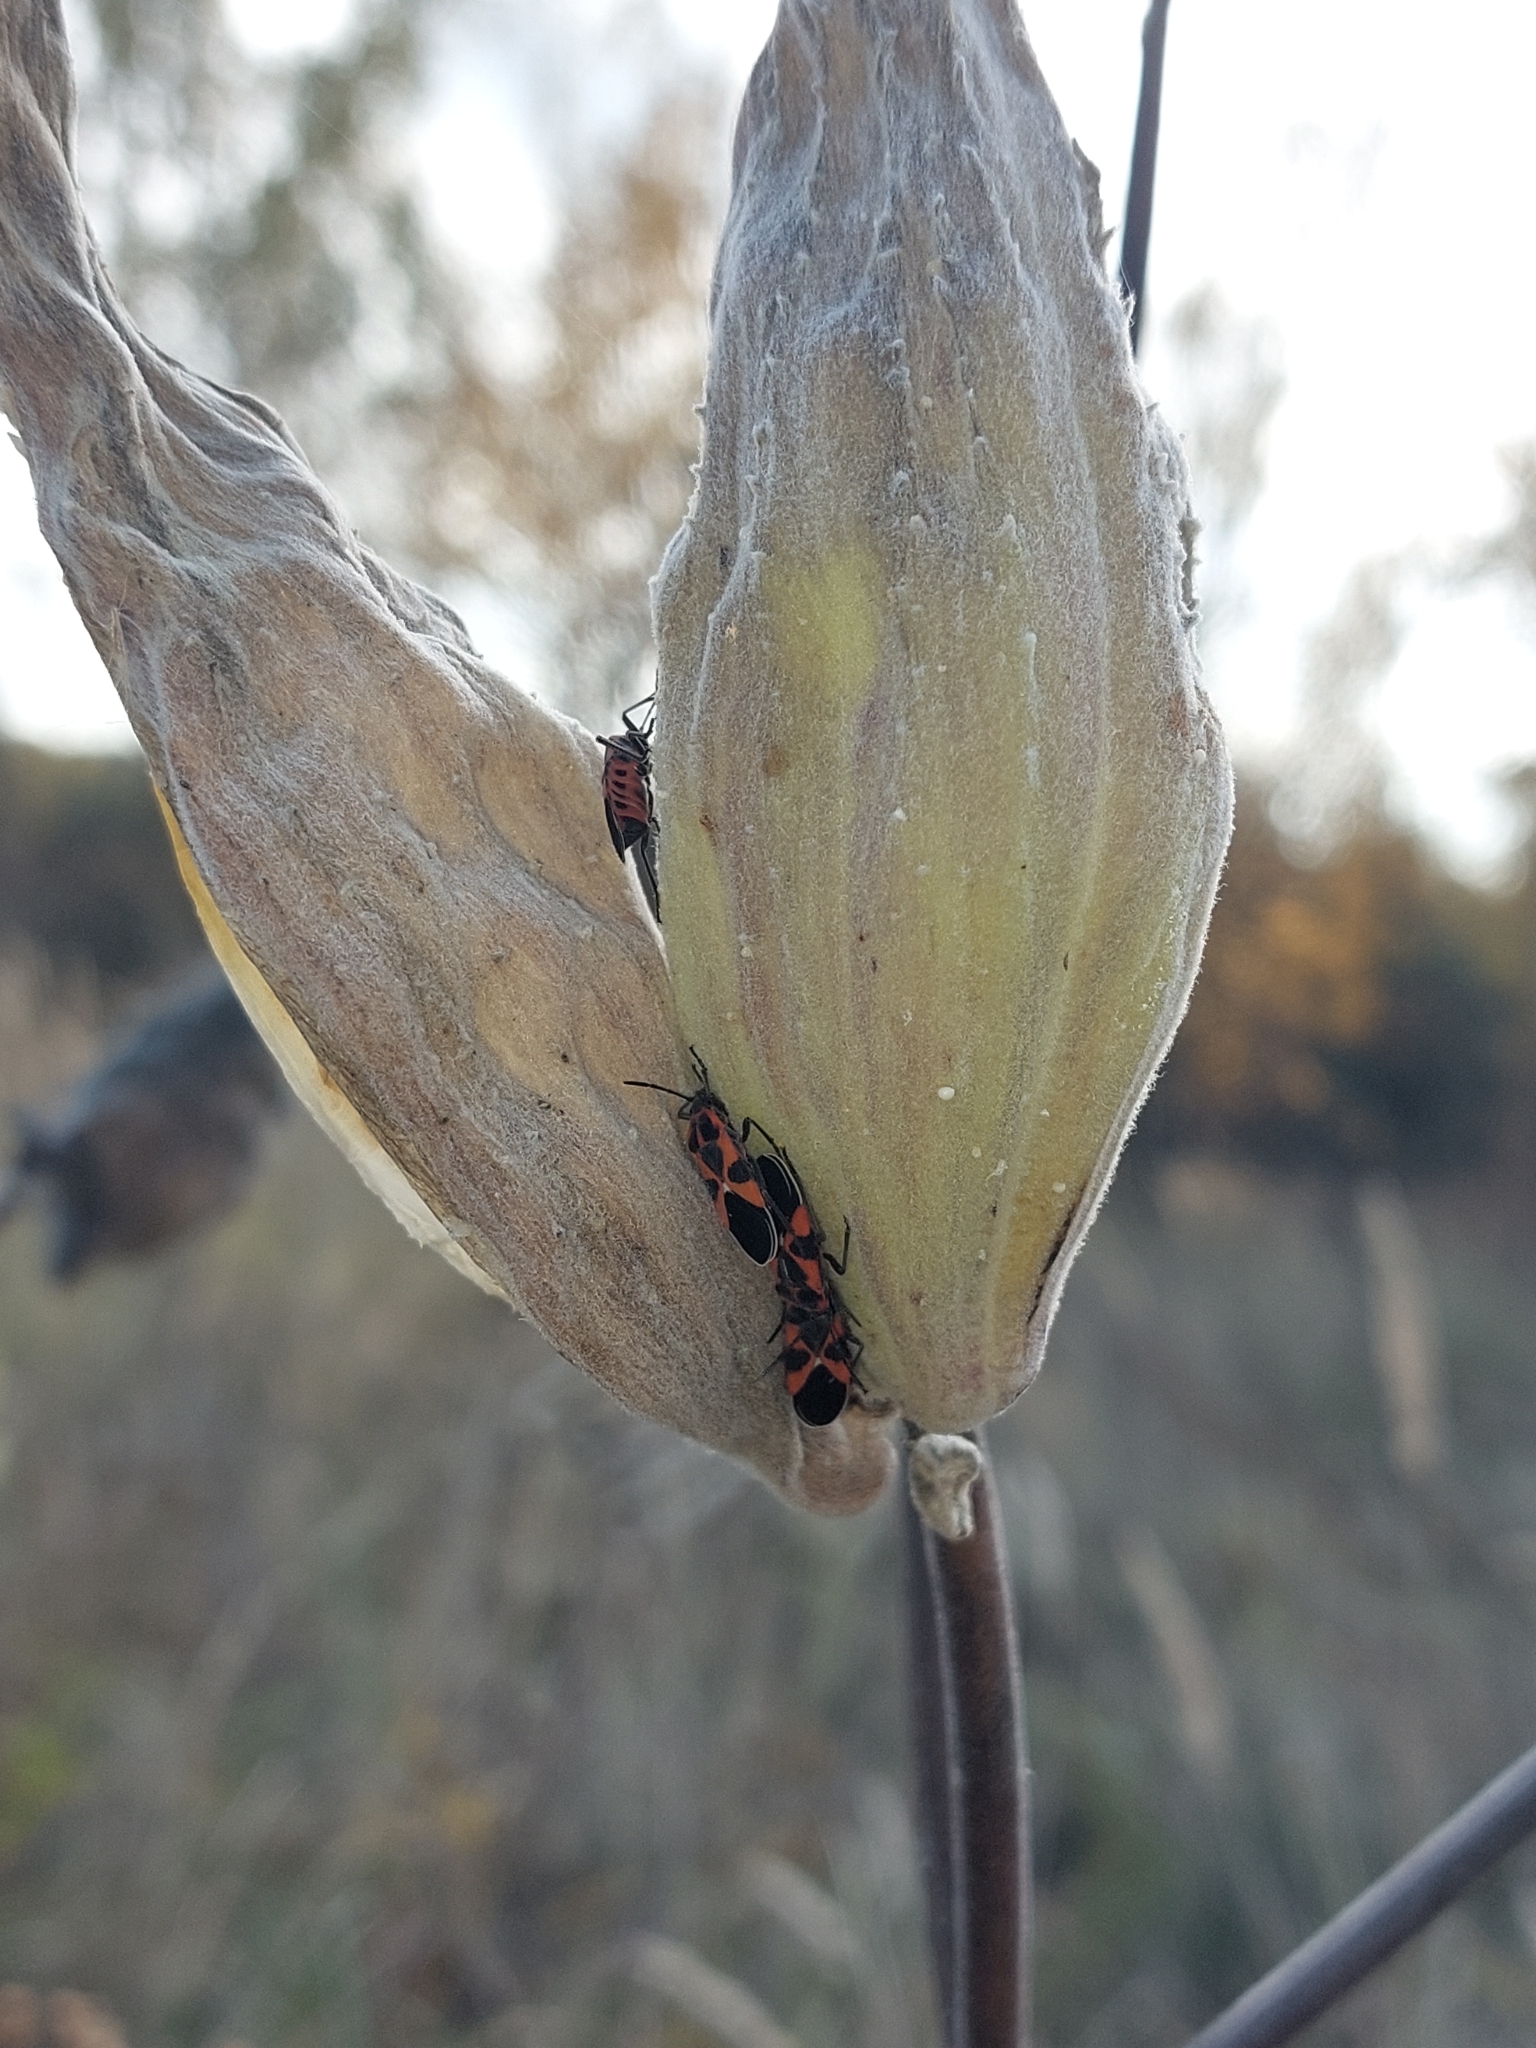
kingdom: Animalia
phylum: Arthropoda
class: Insecta
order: Hemiptera
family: Lygaeidae
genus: Tropidothorax
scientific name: Tropidothorax leucopterus
